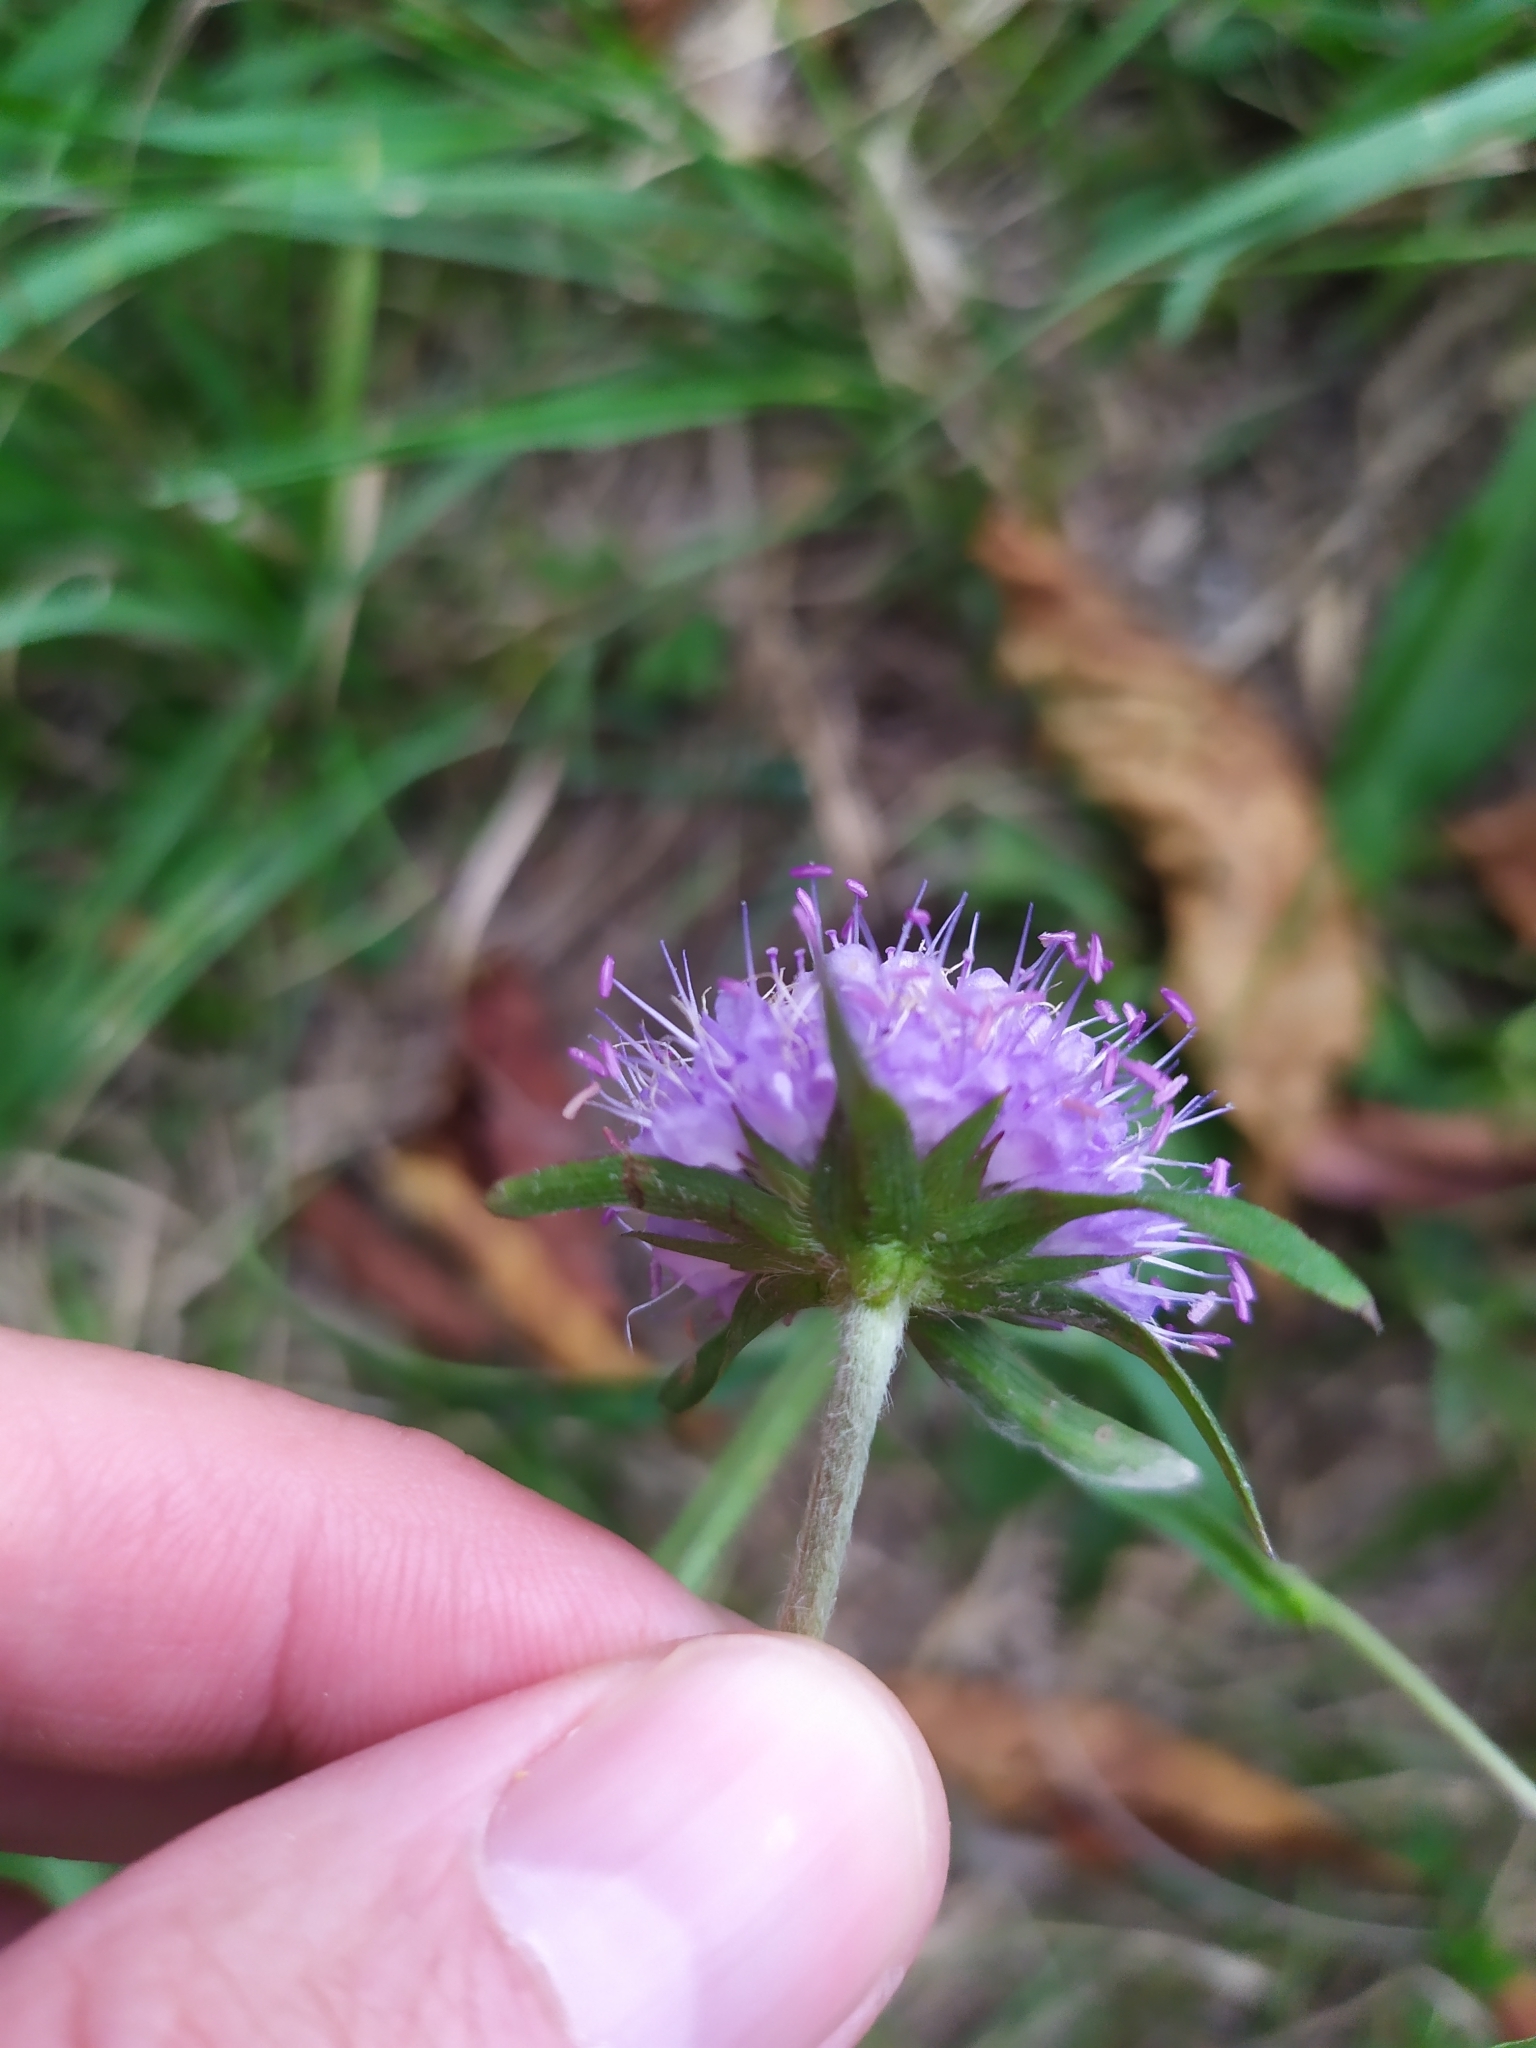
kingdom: Plantae
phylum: Tracheophyta
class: Magnoliopsida
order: Dipsacales
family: Caprifoliaceae
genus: Succisa
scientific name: Succisa pratensis
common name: Devil's-bit
